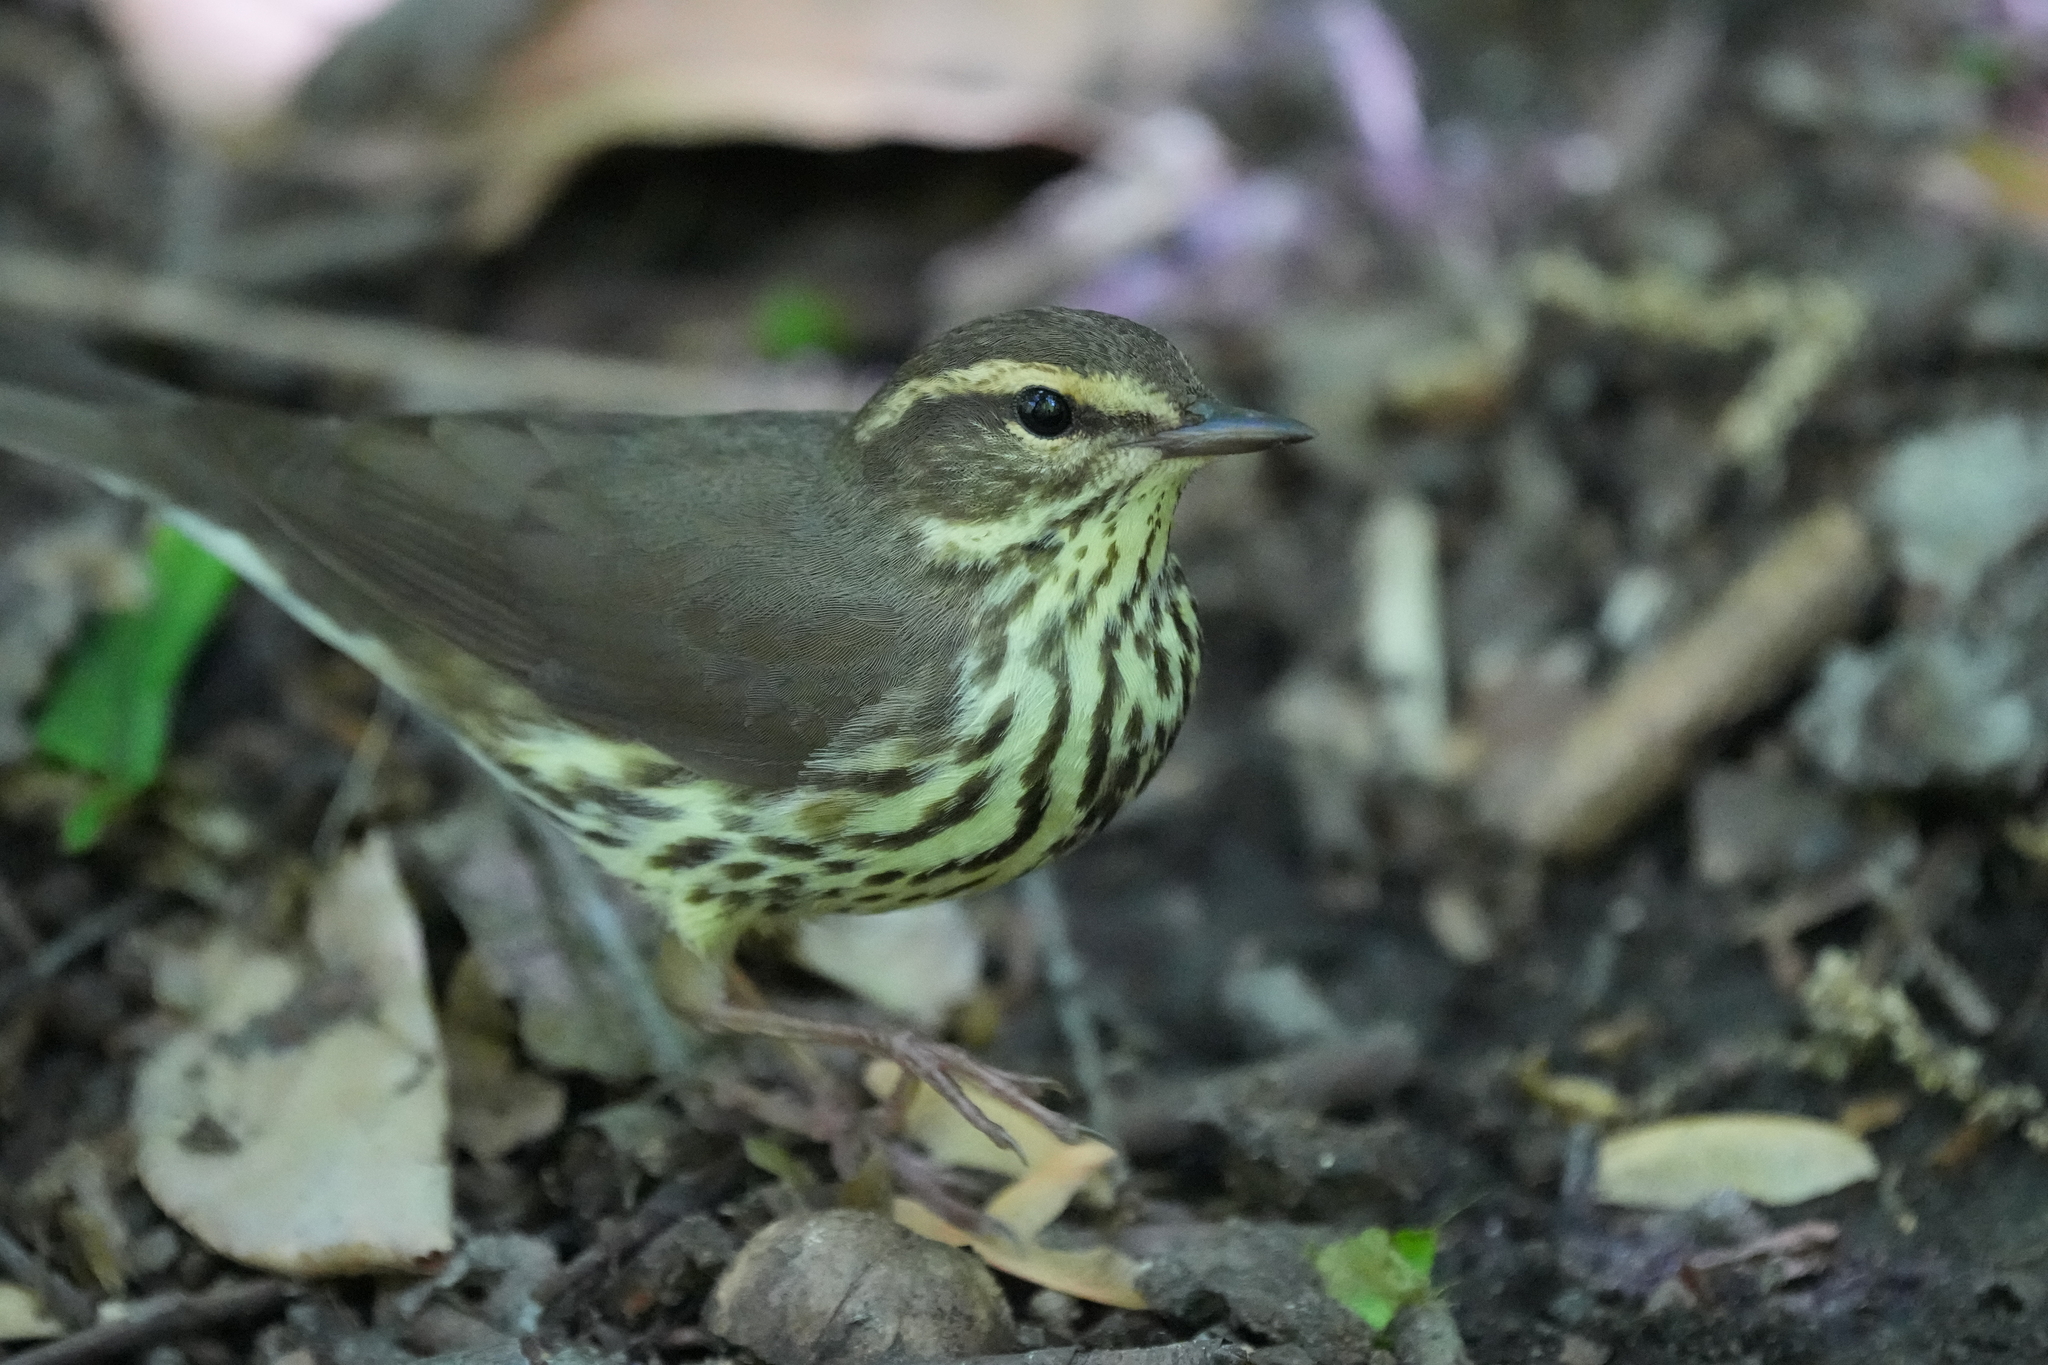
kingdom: Animalia
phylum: Chordata
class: Aves
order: Passeriformes
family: Parulidae
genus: Parkesia
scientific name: Parkesia noveboracensis
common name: Northern waterthrush
